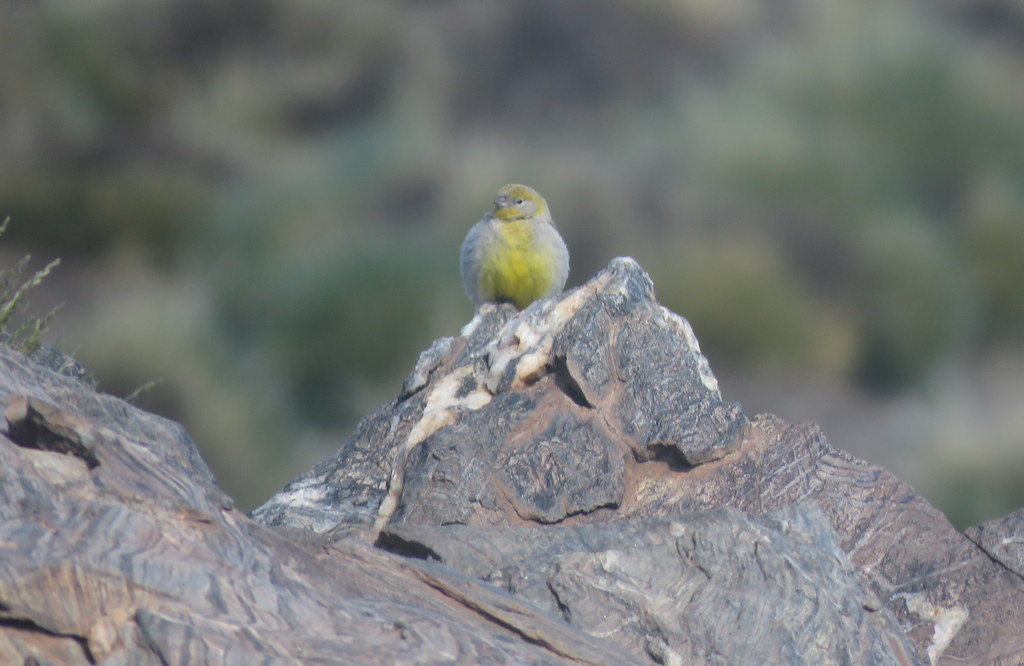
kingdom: Animalia
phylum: Chordata
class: Aves
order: Passeriformes
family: Thraupidae
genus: Sicalis
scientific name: Sicalis uropigyalis
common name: Bright-rumped yellow finch
